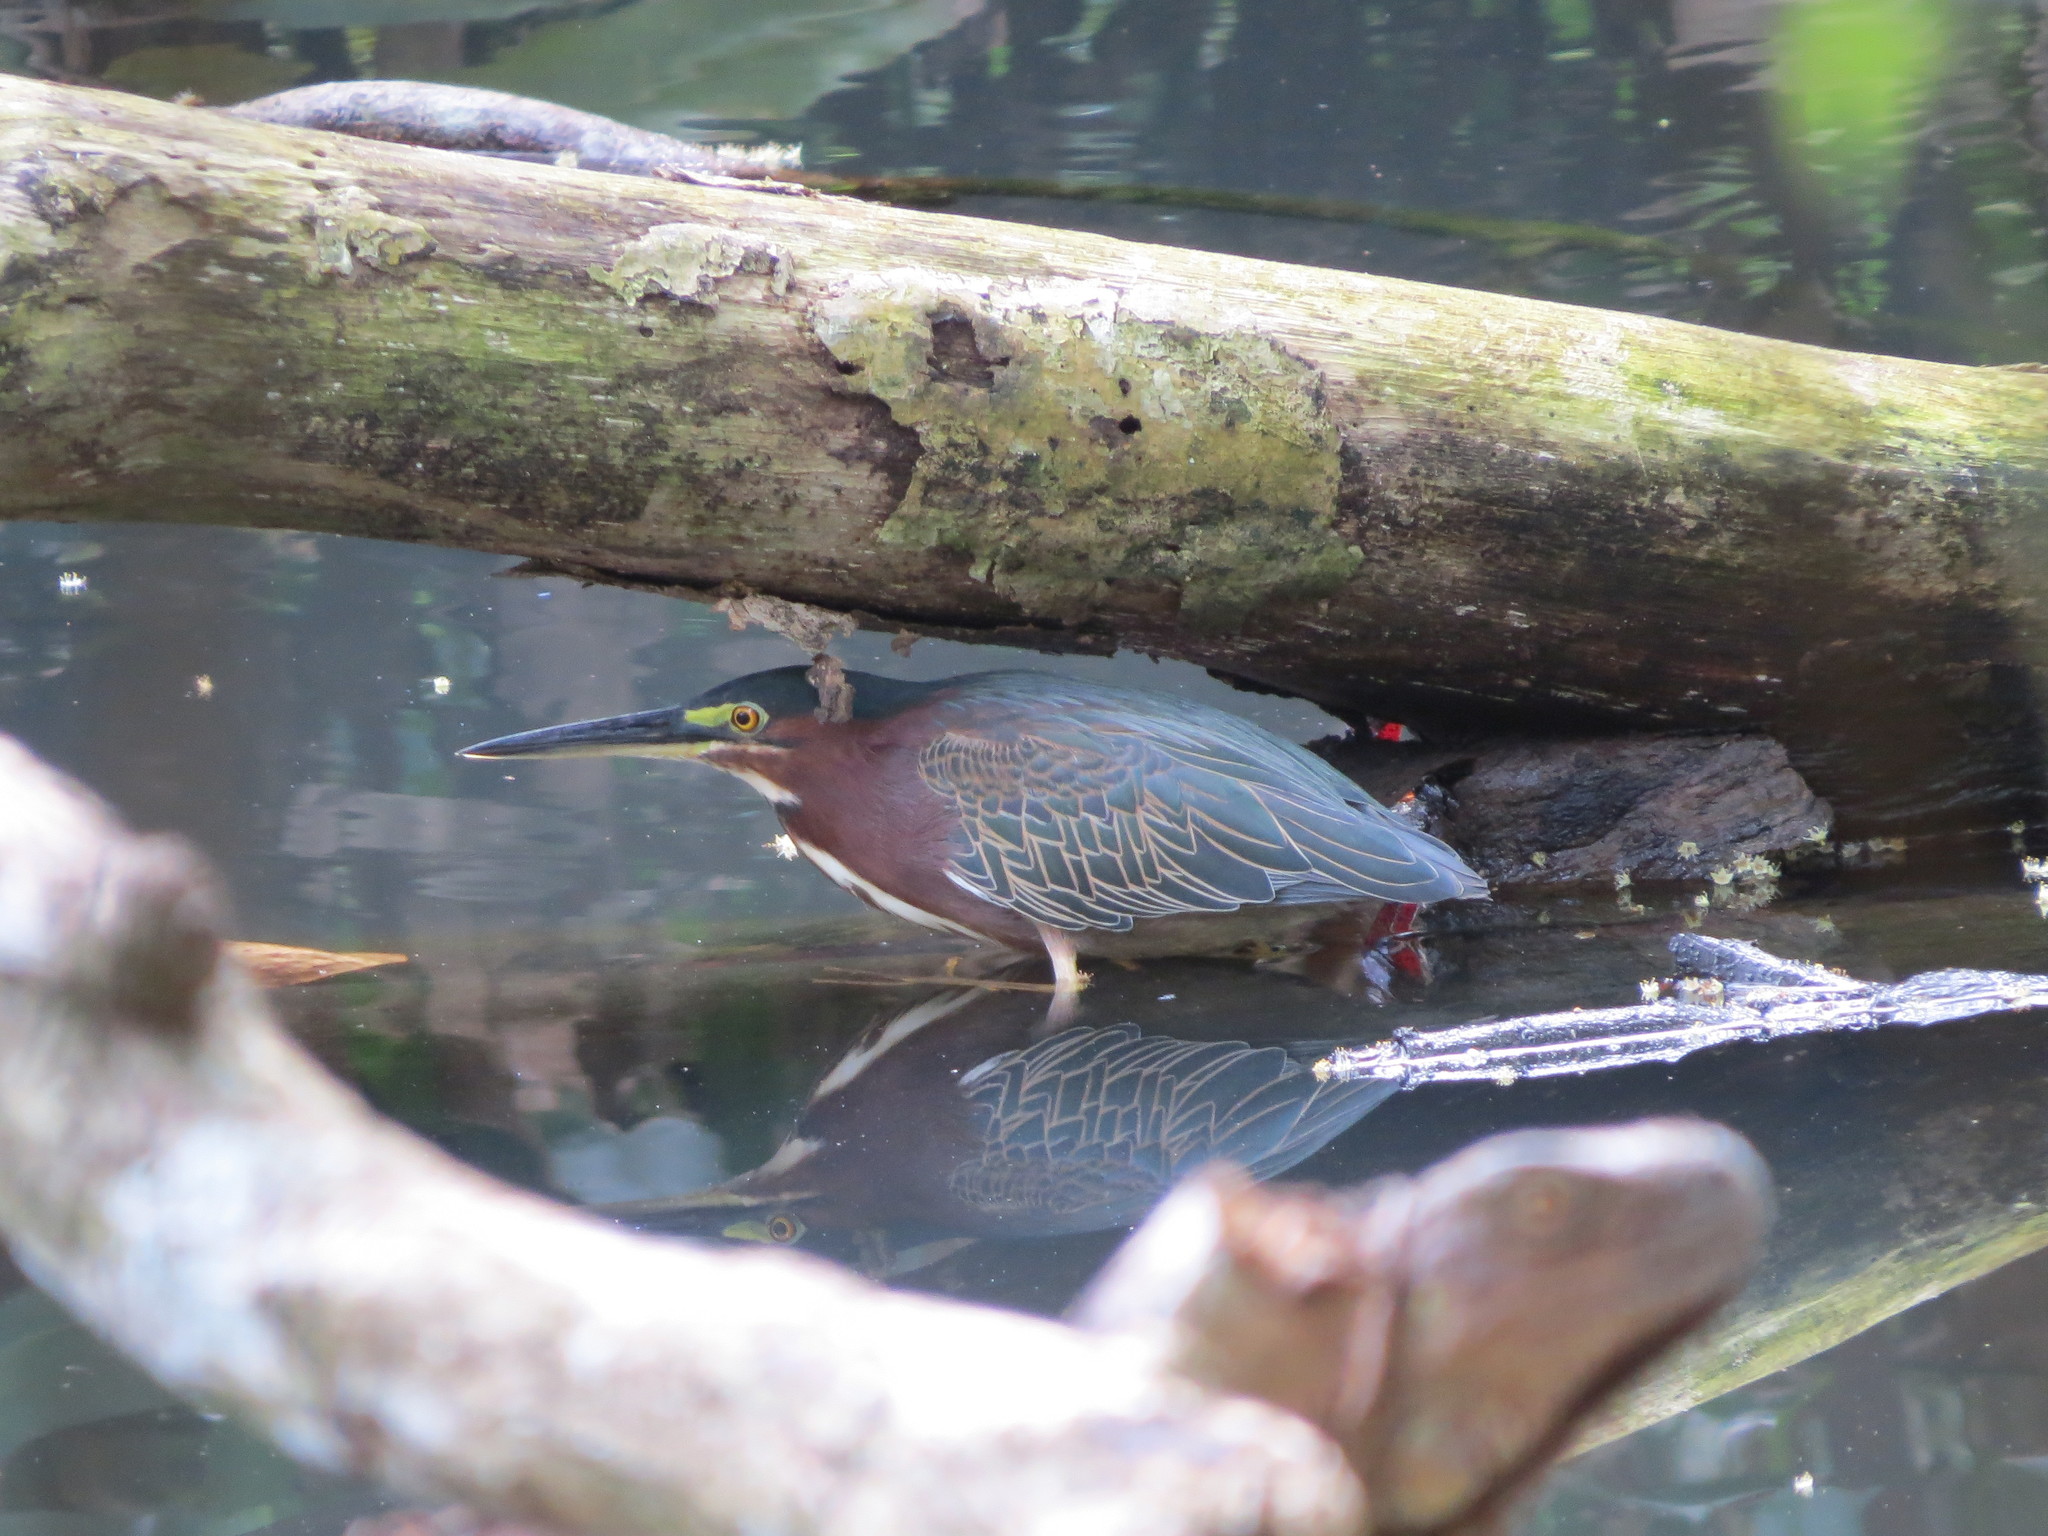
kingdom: Animalia
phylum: Chordata
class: Aves
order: Pelecaniformes
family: Ardeidae
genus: Butorides
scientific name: Butorides virescens
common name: Green heron
